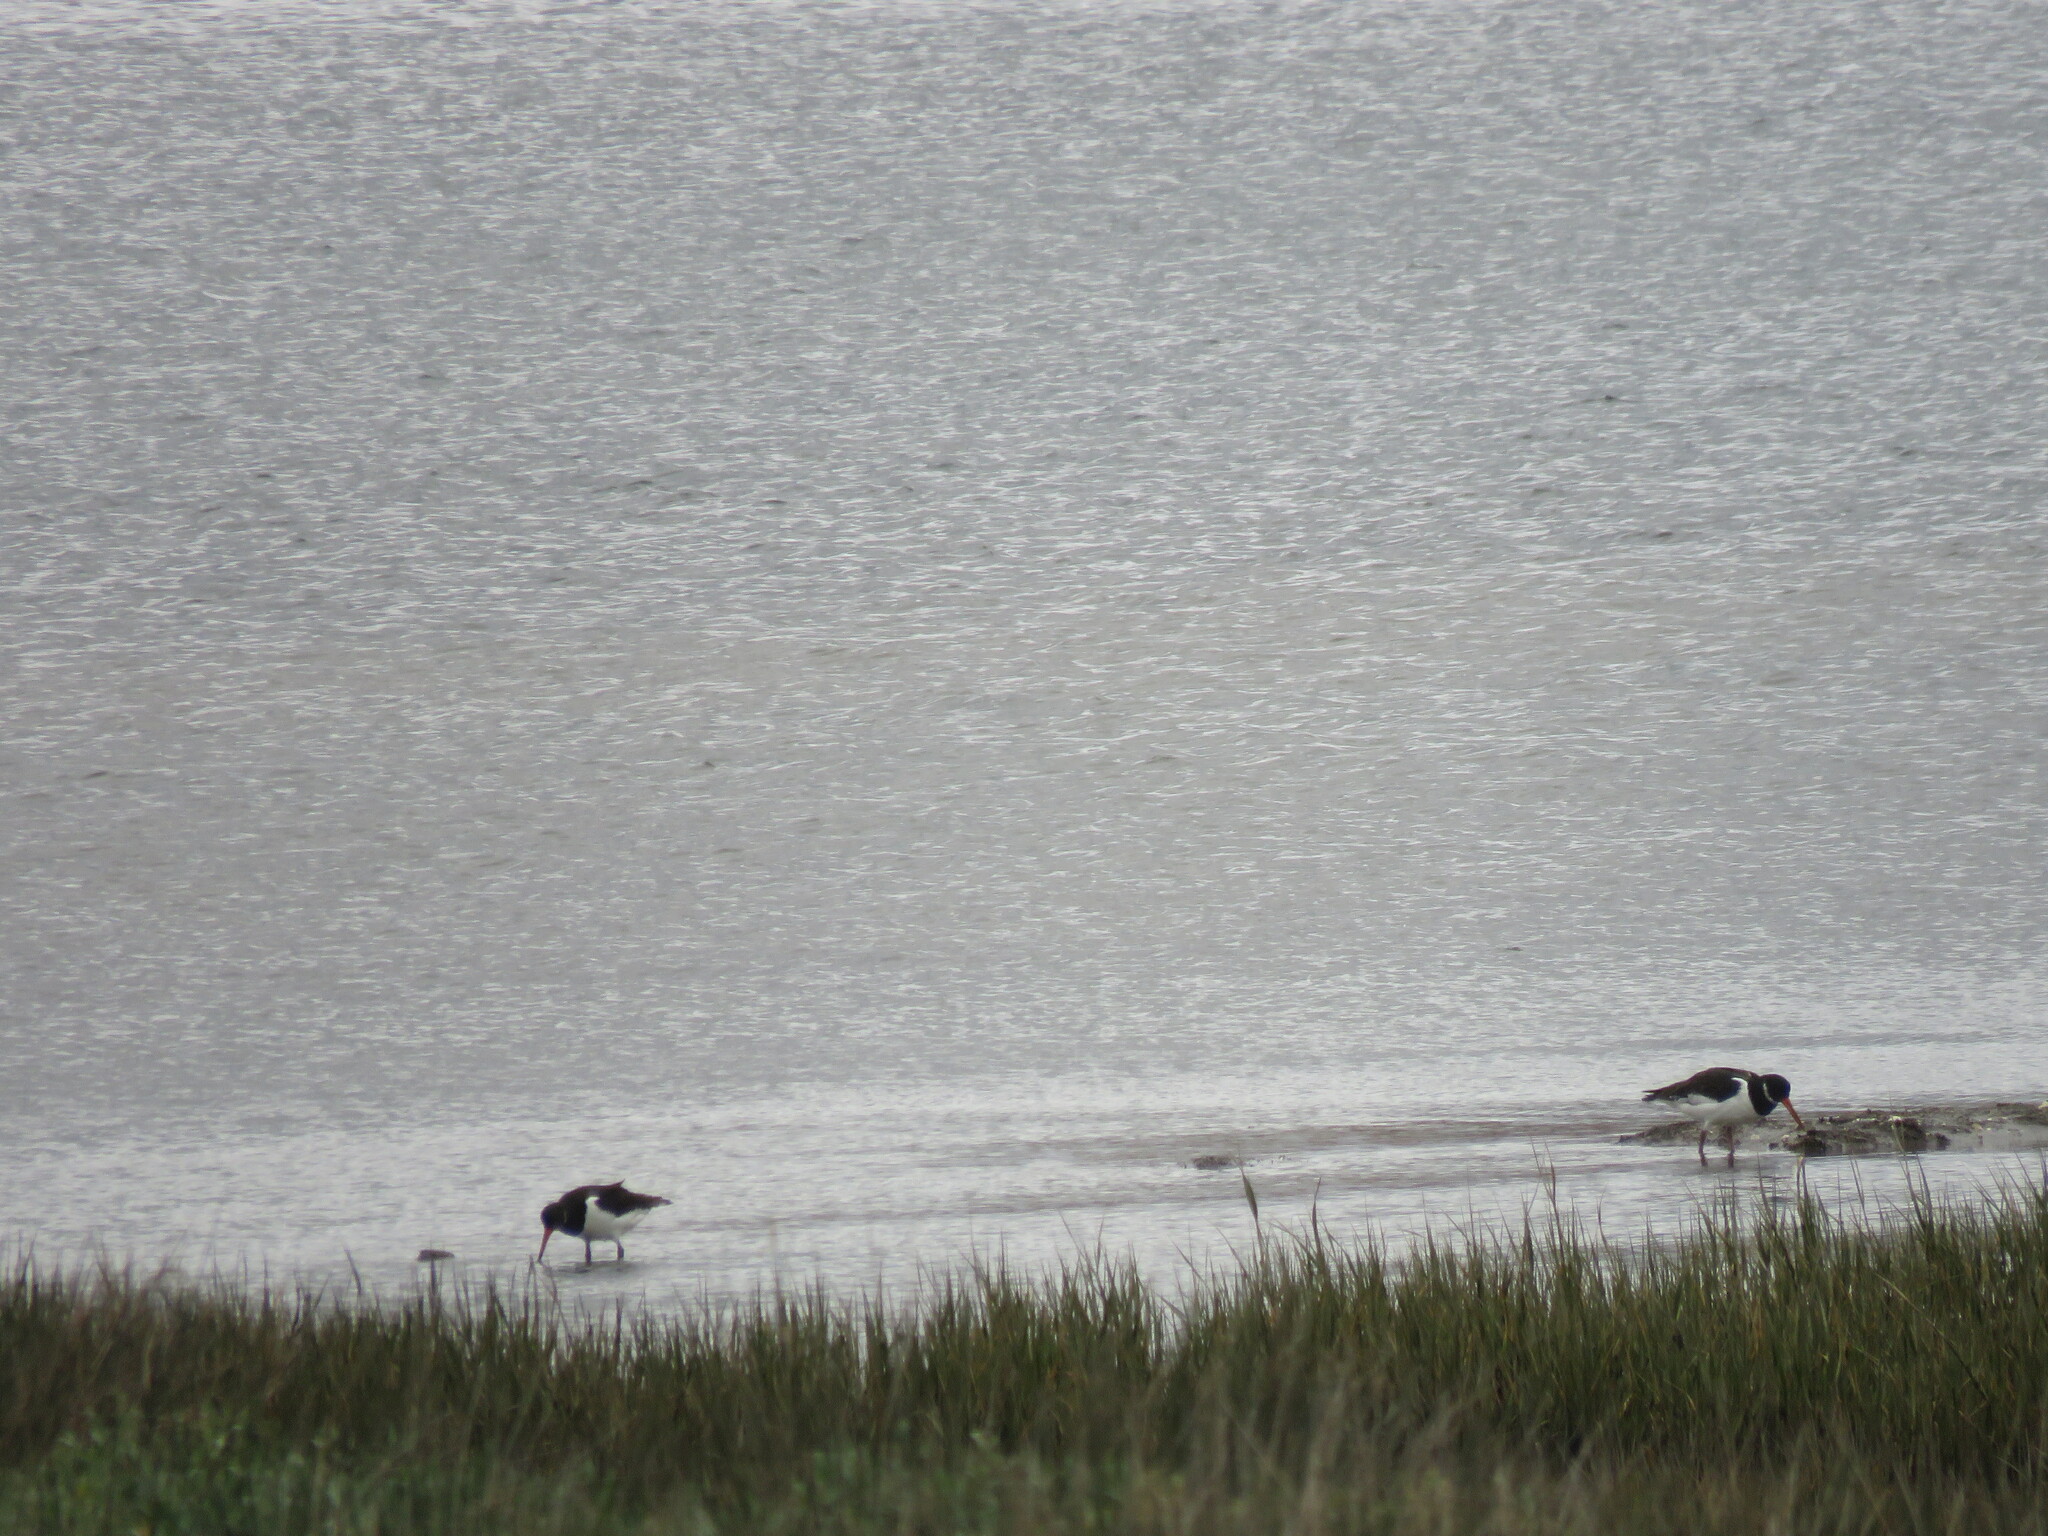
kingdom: Animalia
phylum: Chordata
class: Aves
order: Charadriiformes
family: Haematopodidae
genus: Haematopus
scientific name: Haematopus ostralegus
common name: Eurasian oystercatcher
